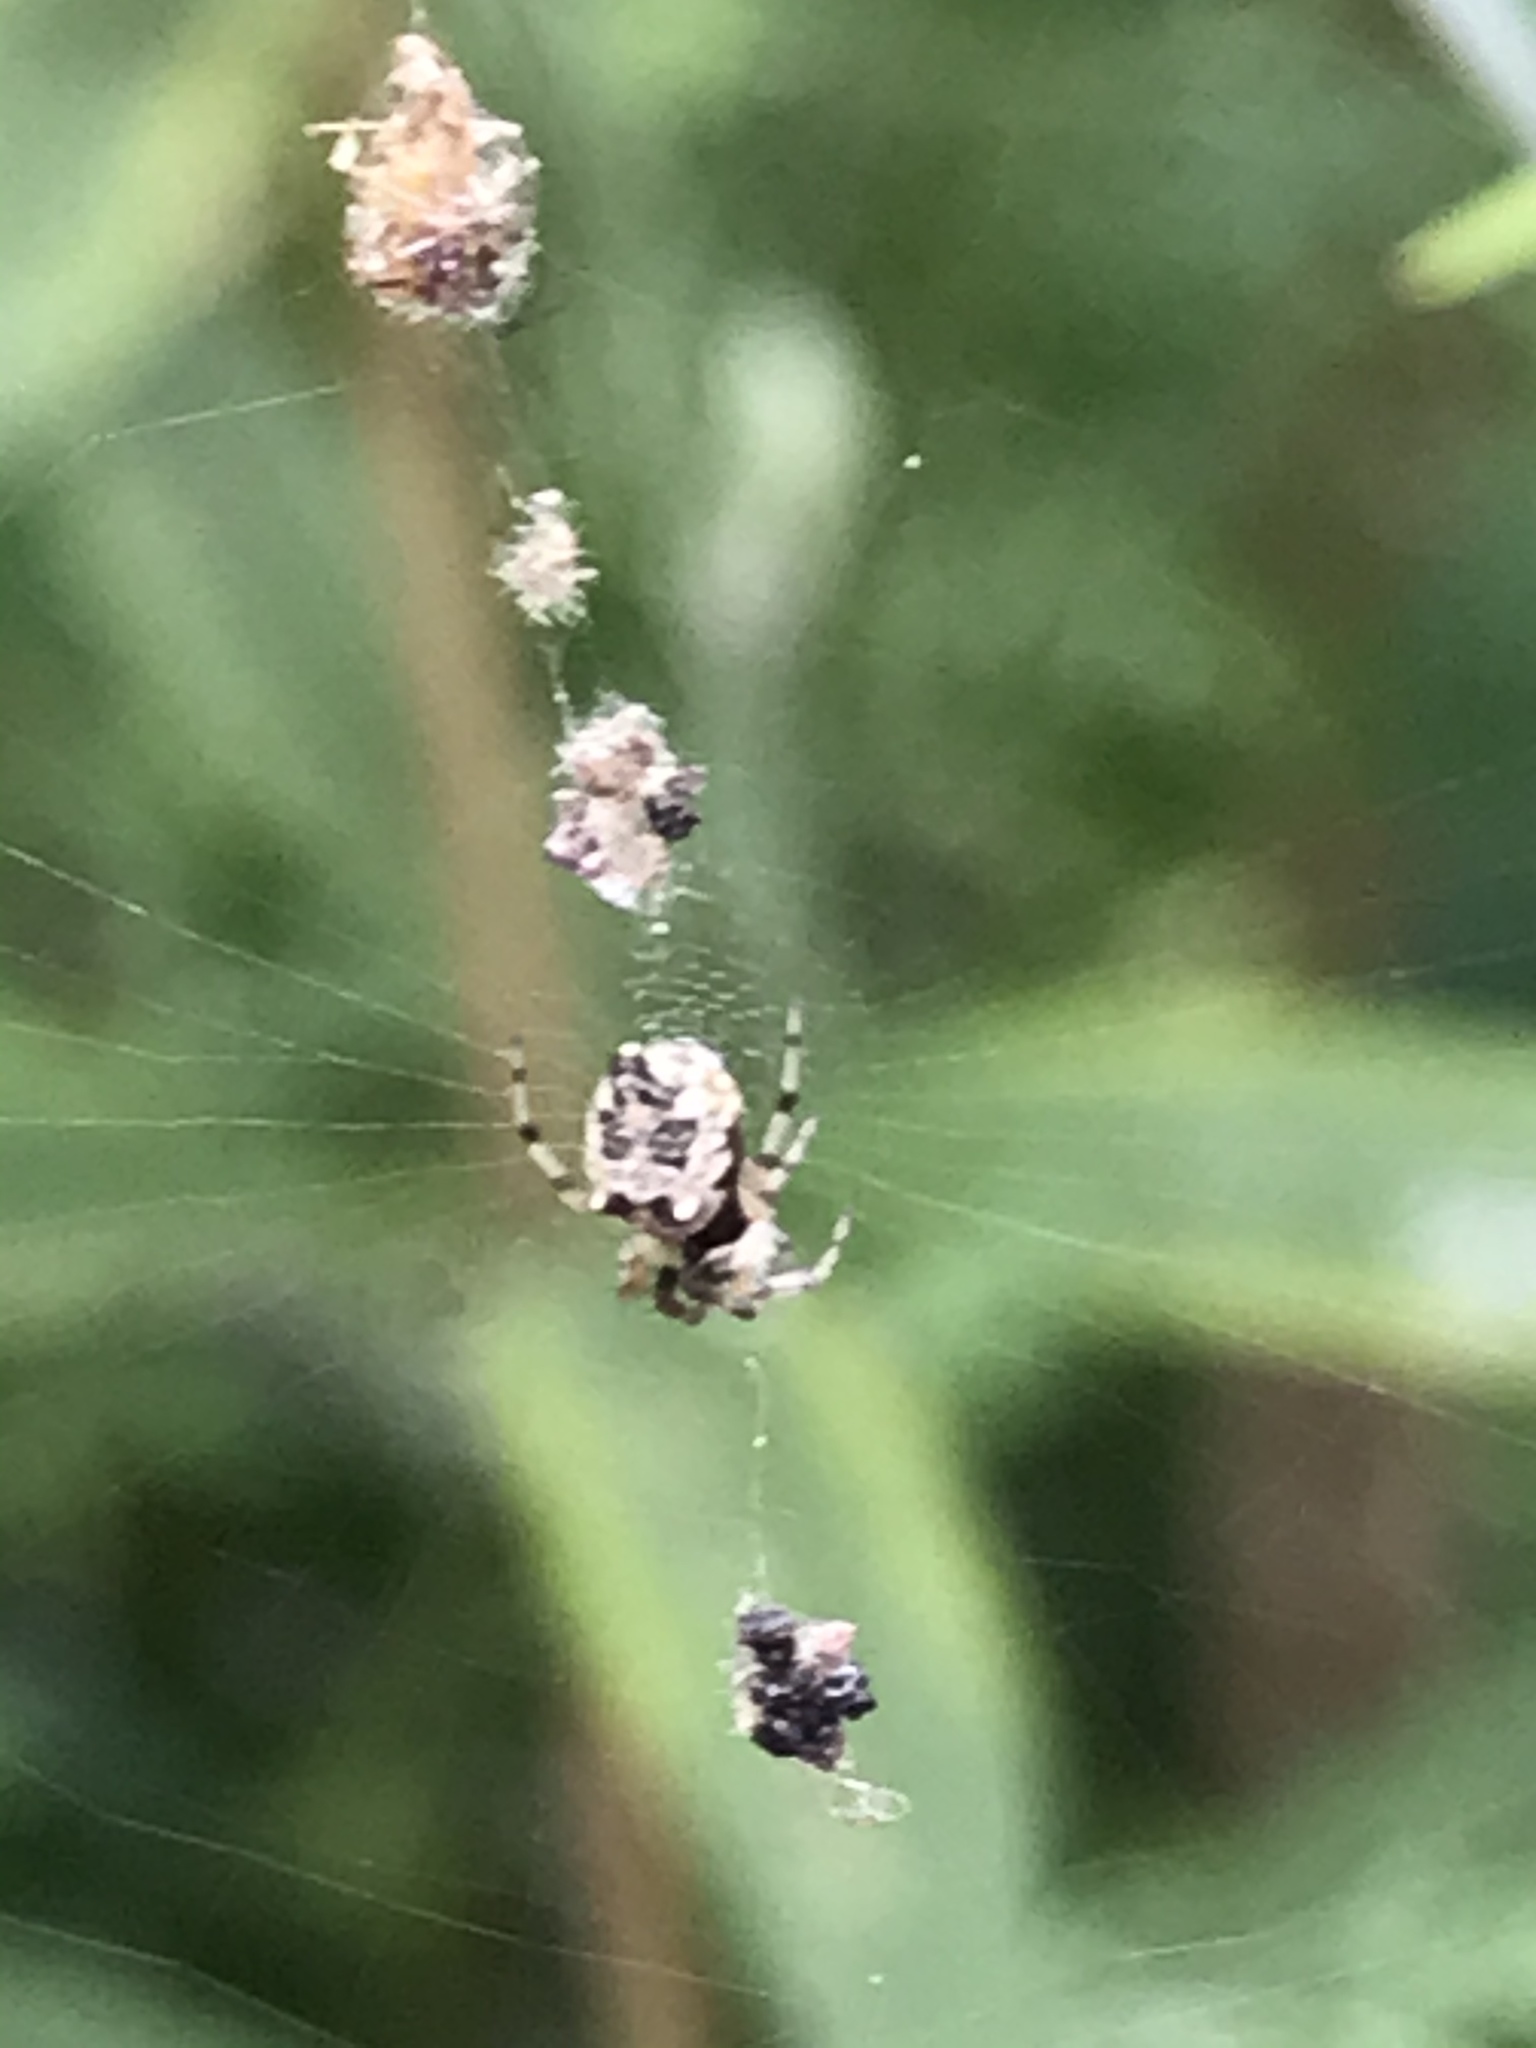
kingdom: Animalia
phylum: Arthropoda
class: Arachnida
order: Araneae
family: Araneidae
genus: Cyclosa
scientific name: Cyclosa turbinata
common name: Orb weavers
